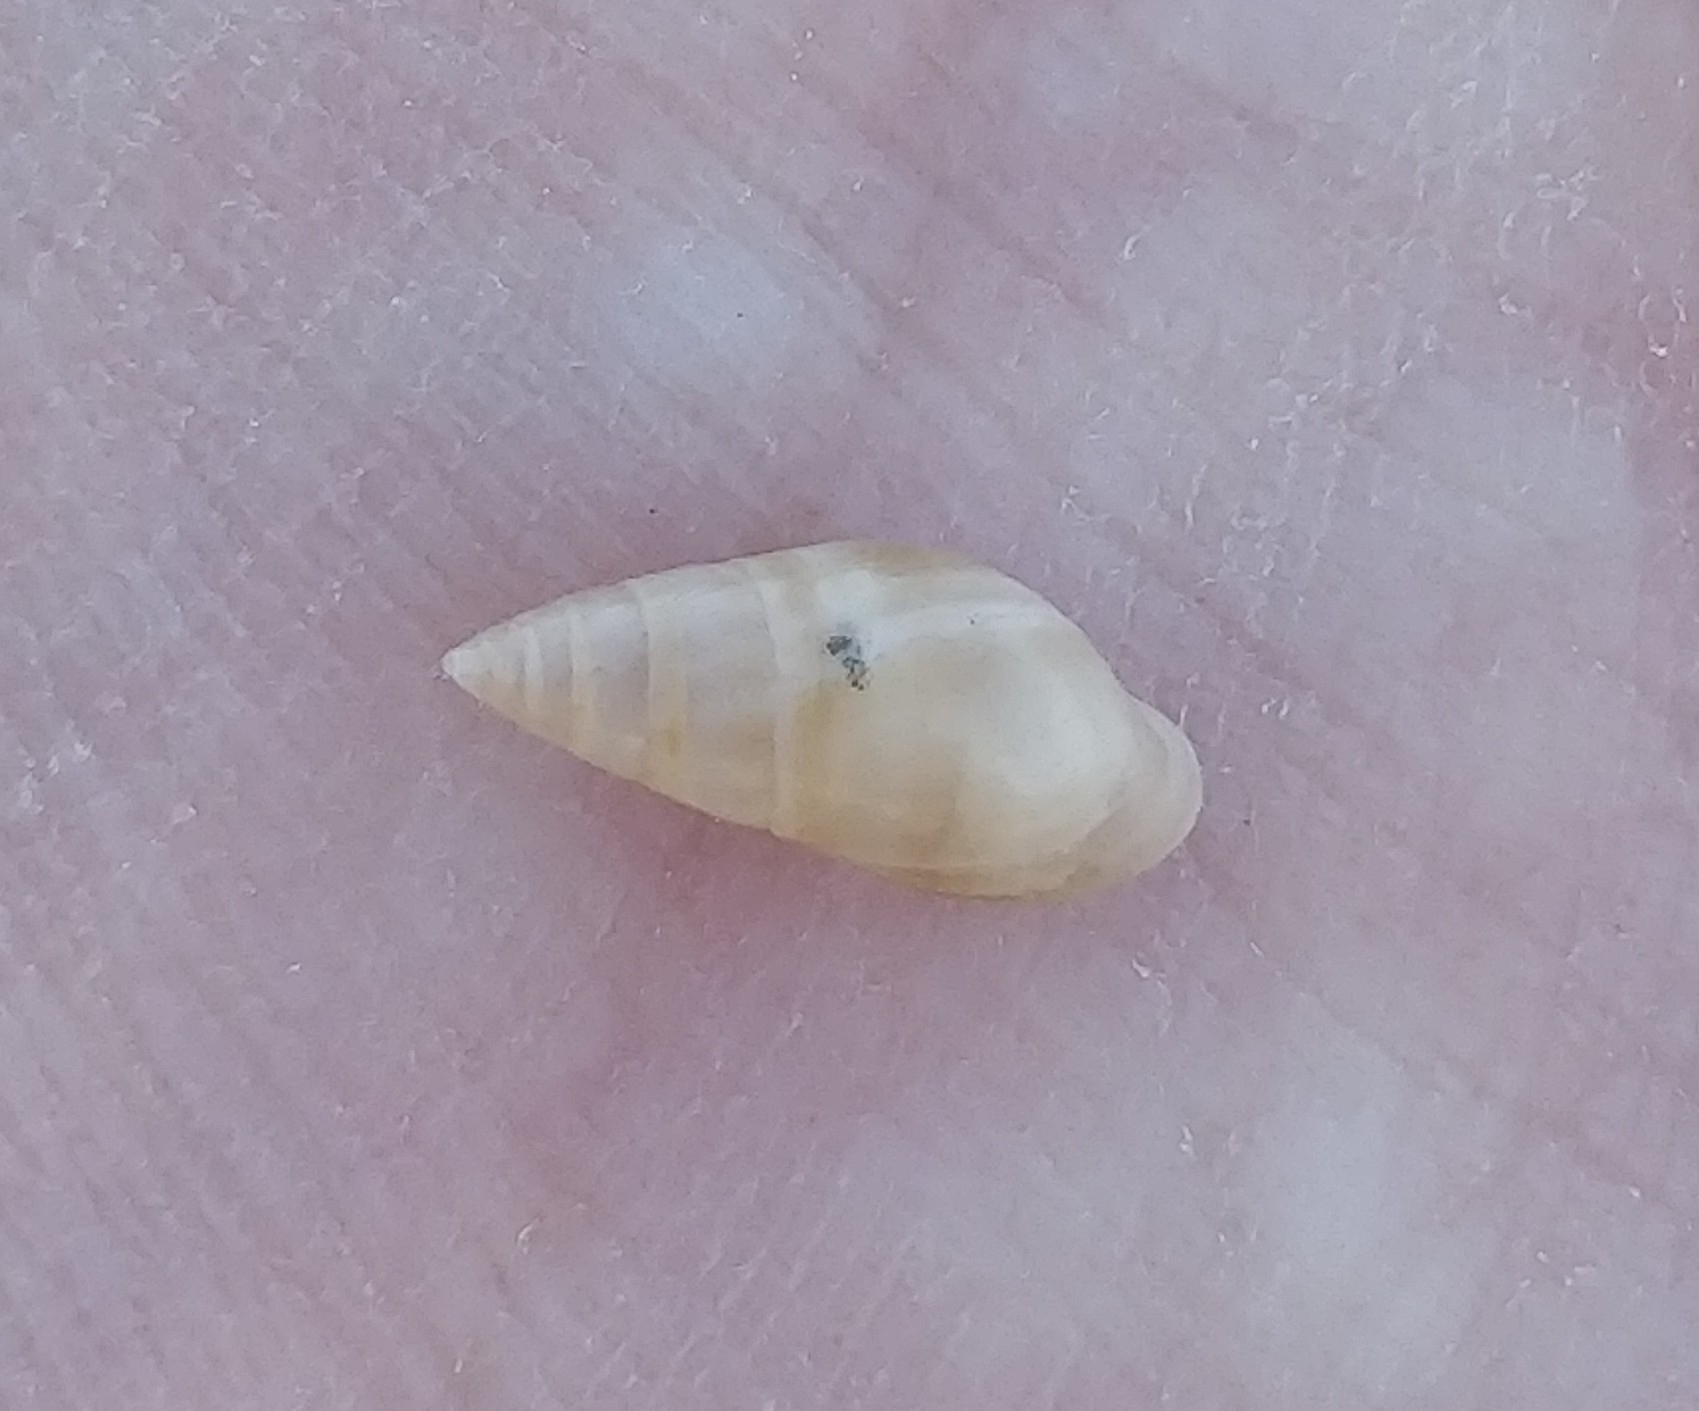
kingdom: Animalia
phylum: Mollusca
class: Gastropoda
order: Ellobiida
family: Ellobiidae
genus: Myosotella
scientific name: Myosotella myosotis
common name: Mouse-eared snail
